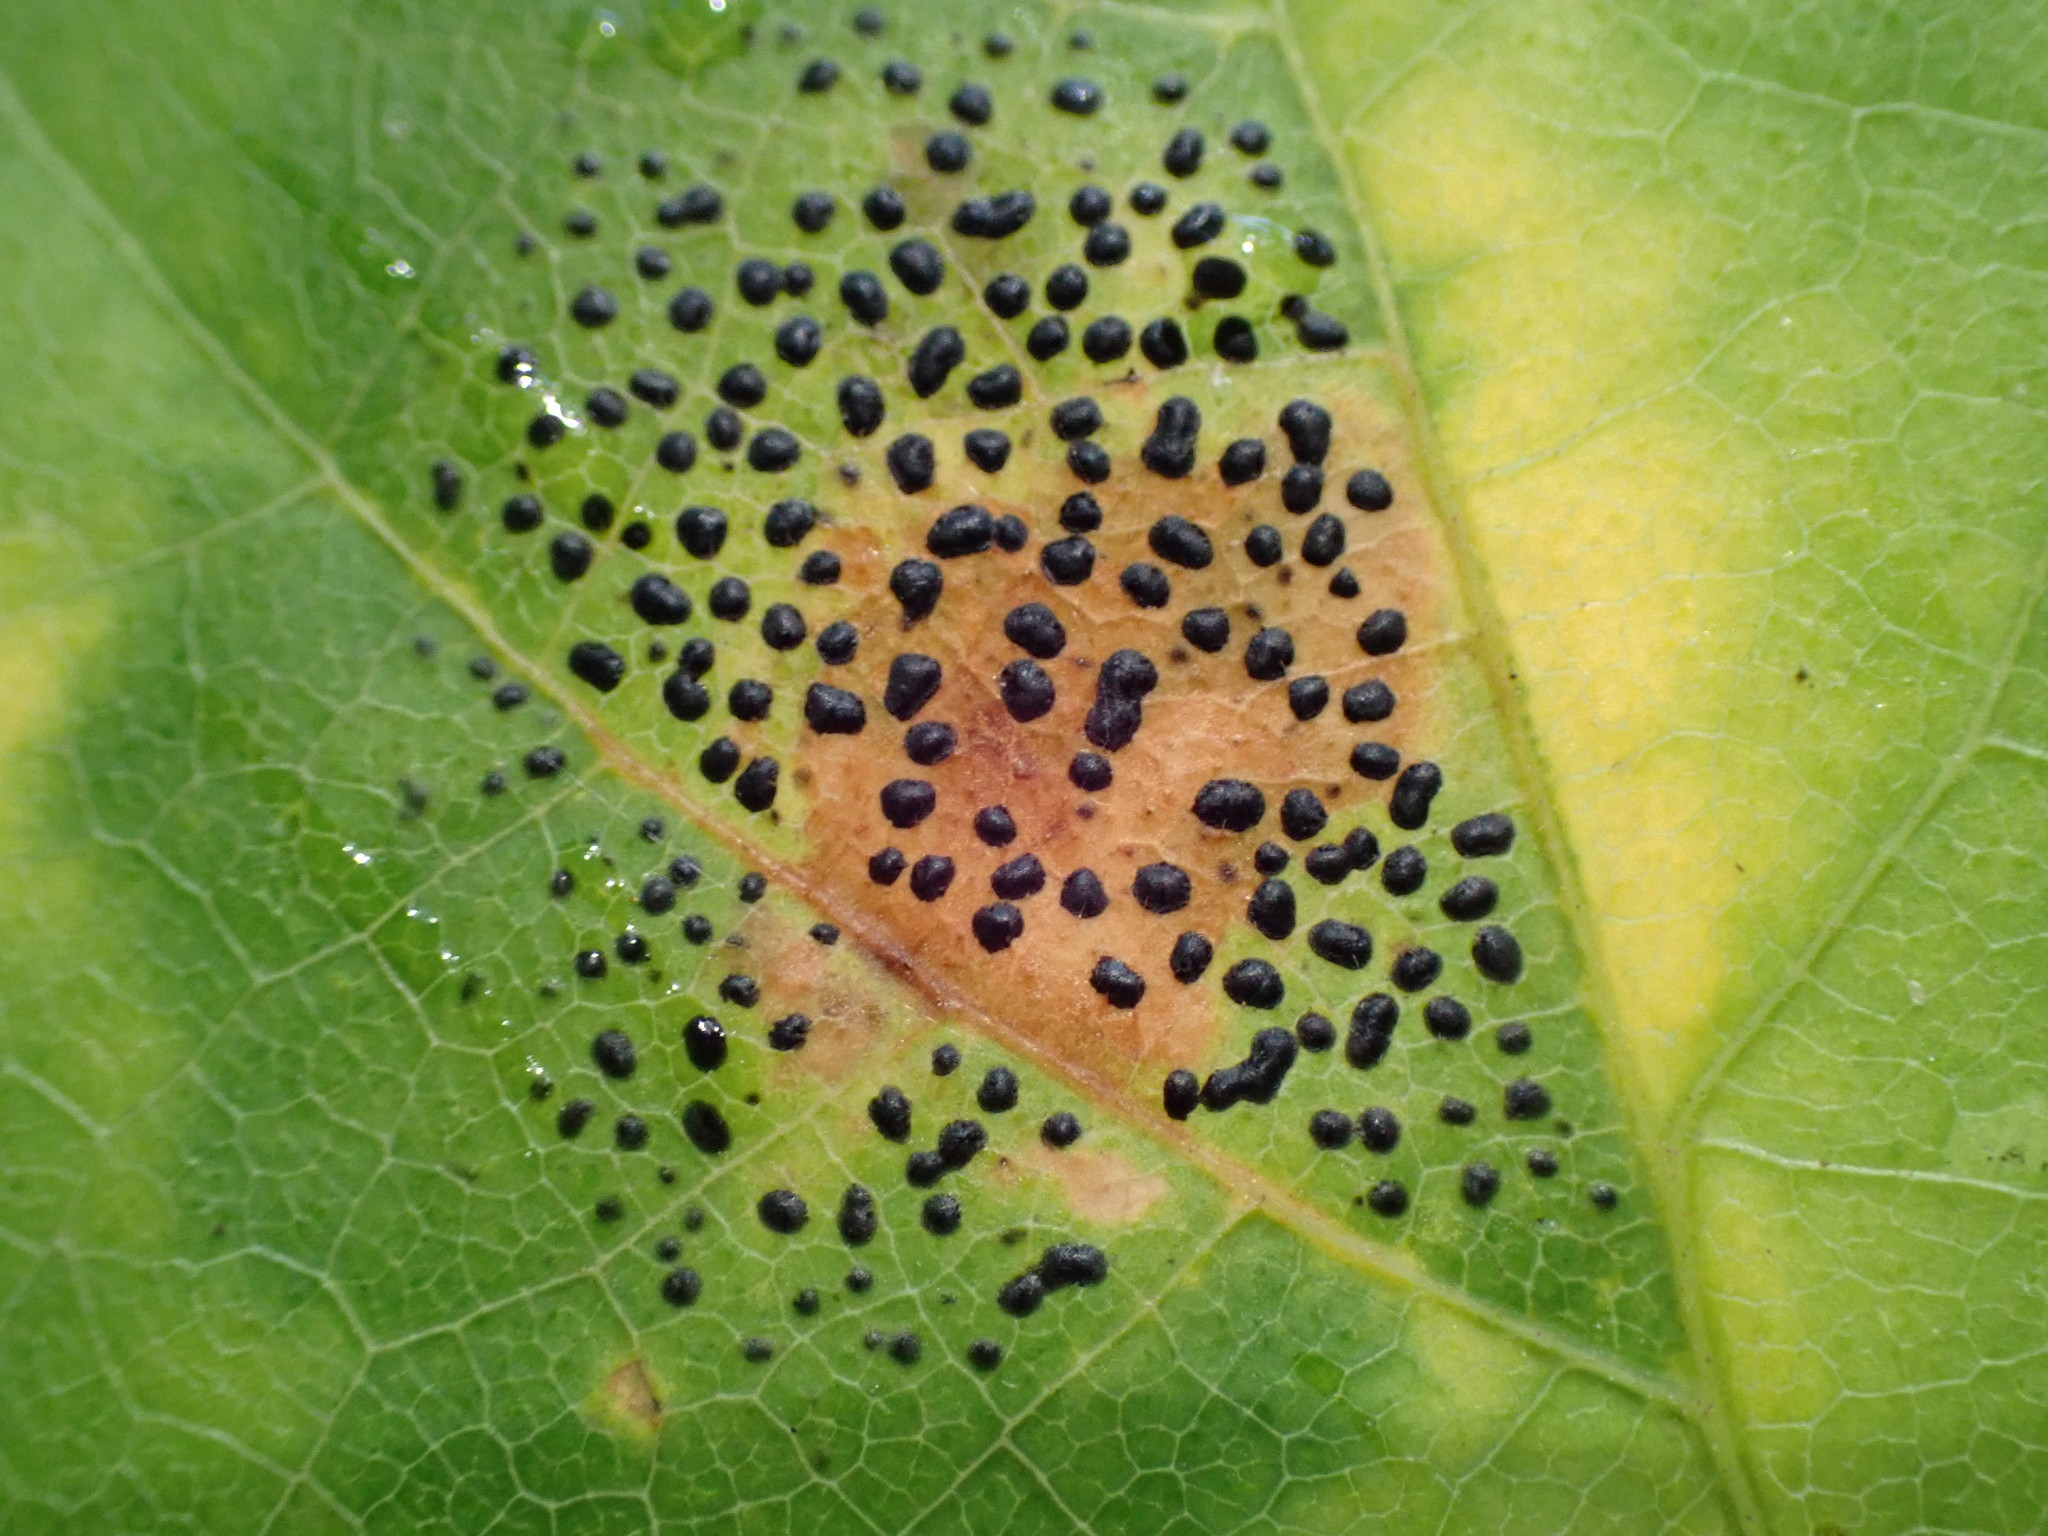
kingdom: Fungi
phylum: Ascomycota
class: Leotiomycetes
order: Rhytismatales
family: Rhytismataceae
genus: Rhytisma
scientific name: Rhytisma punctatum
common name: Speckled tar spot
